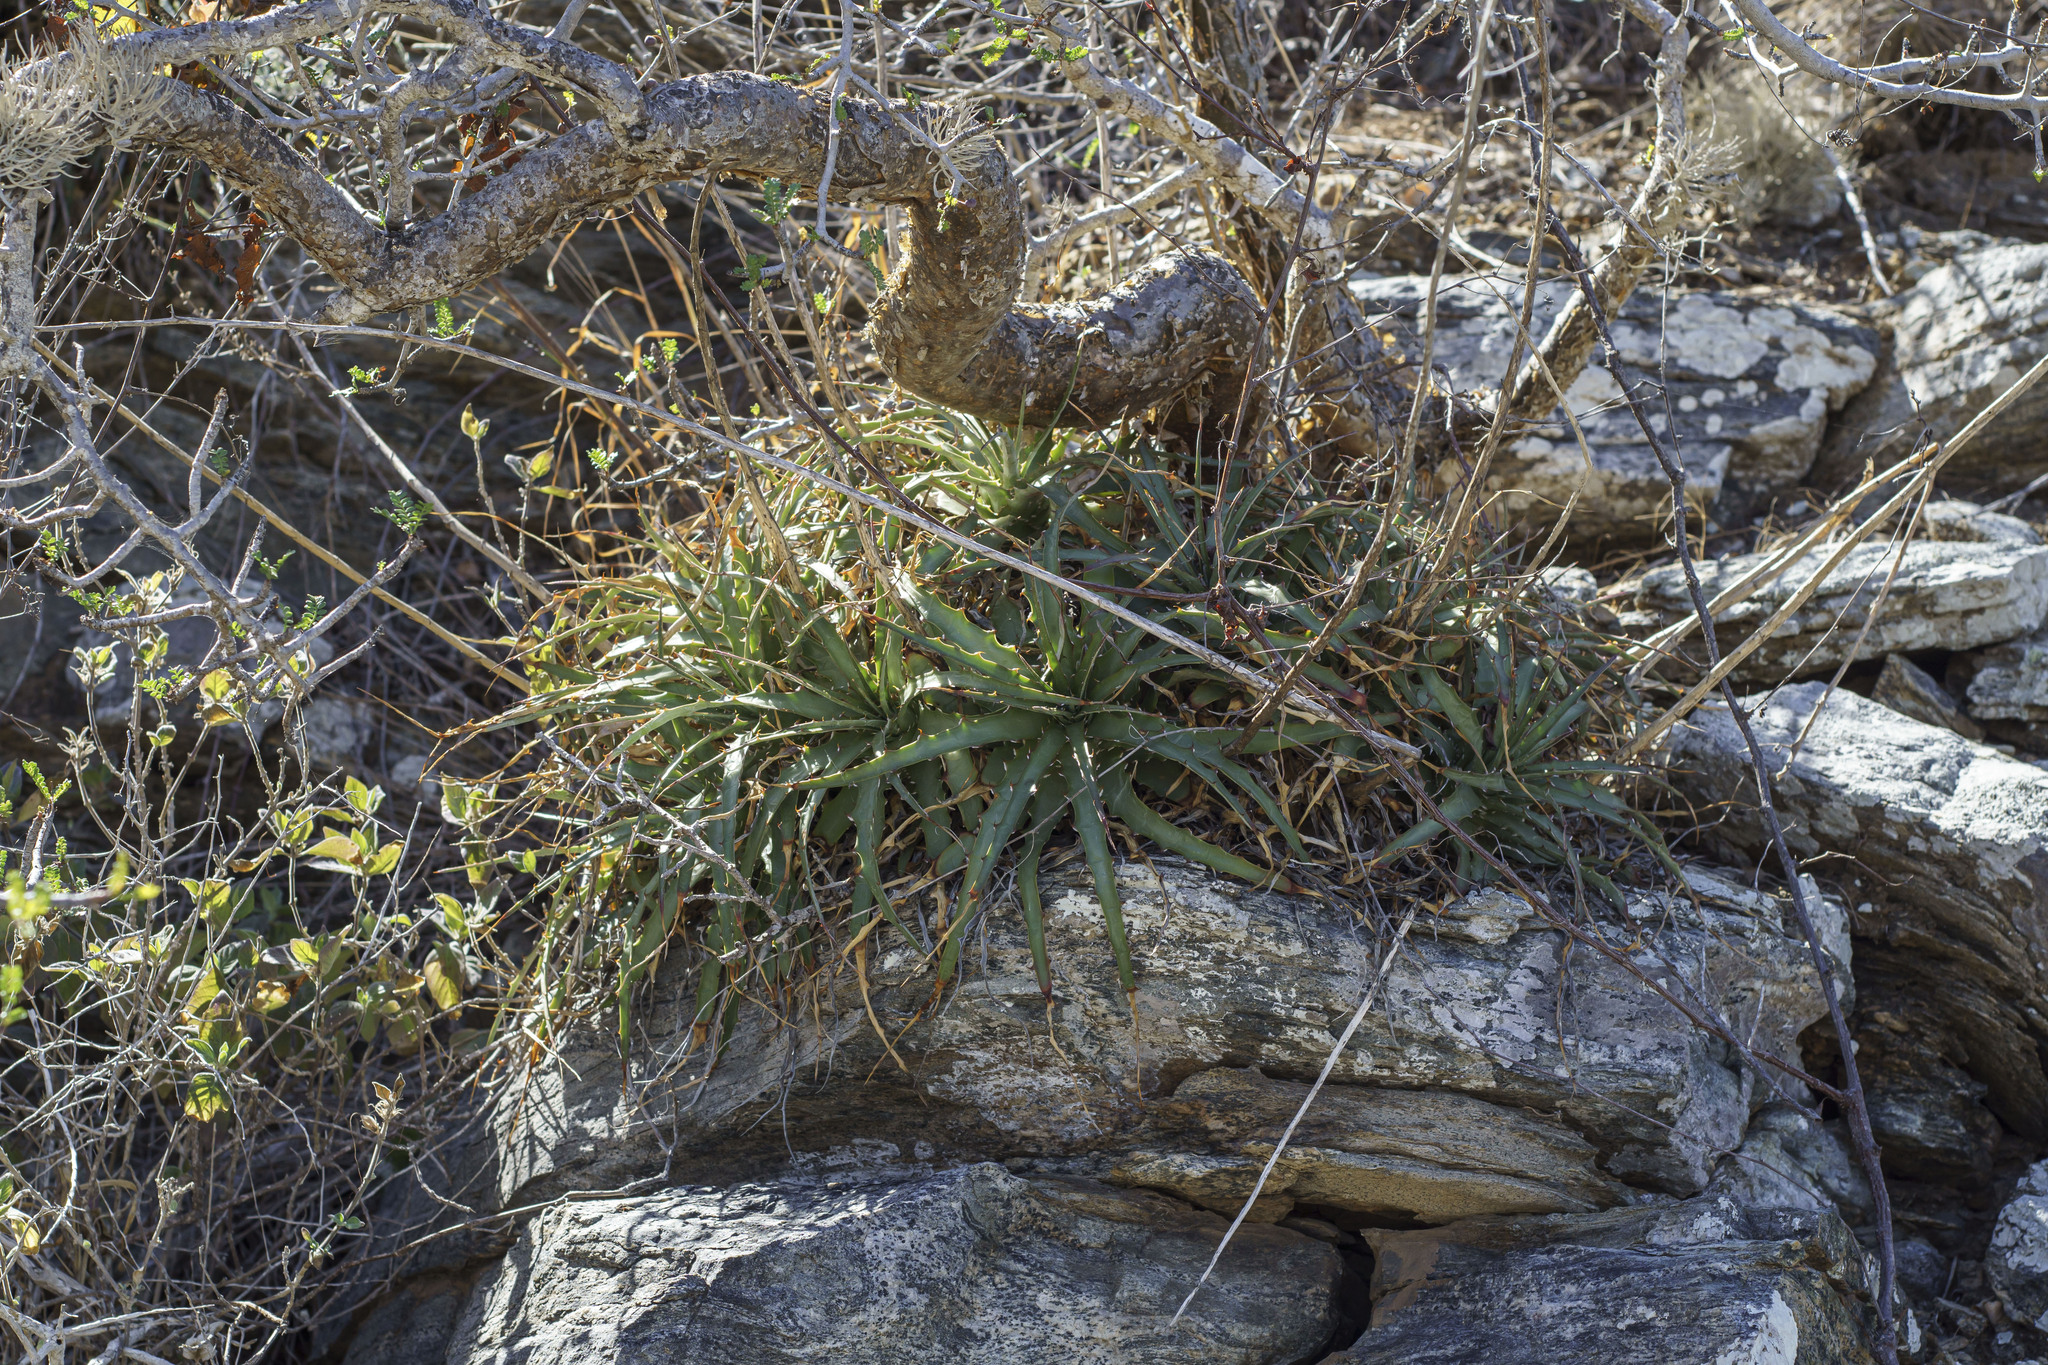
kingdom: Plantae
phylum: Tracheophyta
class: Liliopsida
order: Poales
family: Bromeliaceae
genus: Hechtia
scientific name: Hechtia montana
